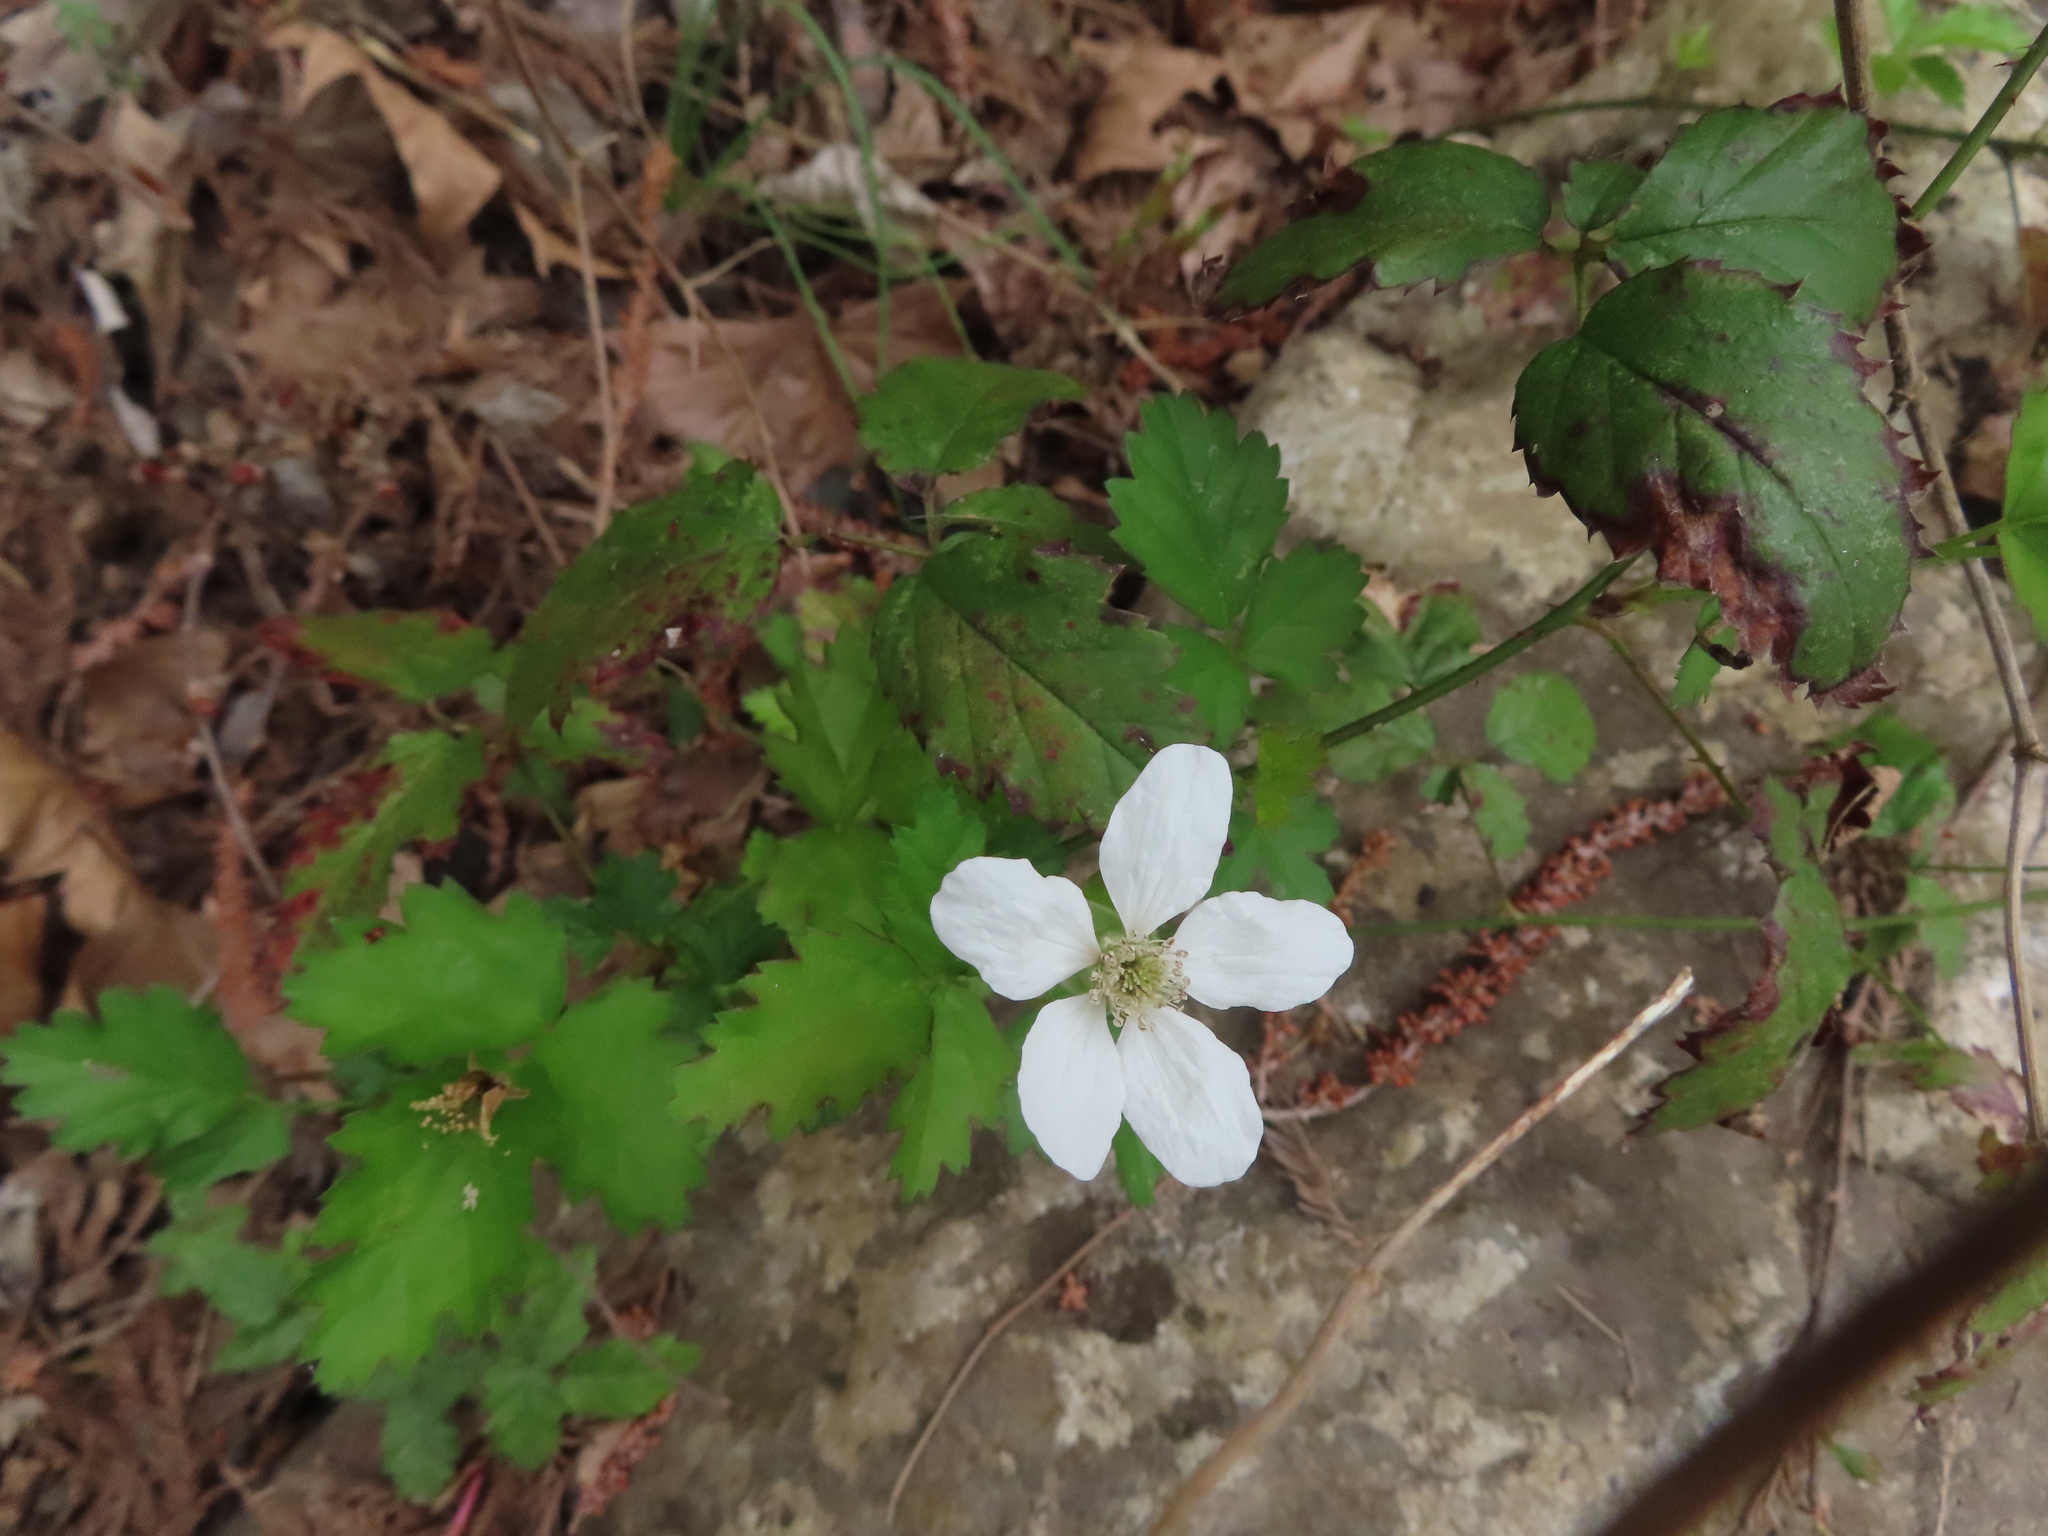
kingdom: Plantae
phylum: Tracheophyta
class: Magnoliopsida
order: Rosales
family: Rosaceae
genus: Rubus
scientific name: Rubus trivialis
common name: Southern dewberry
